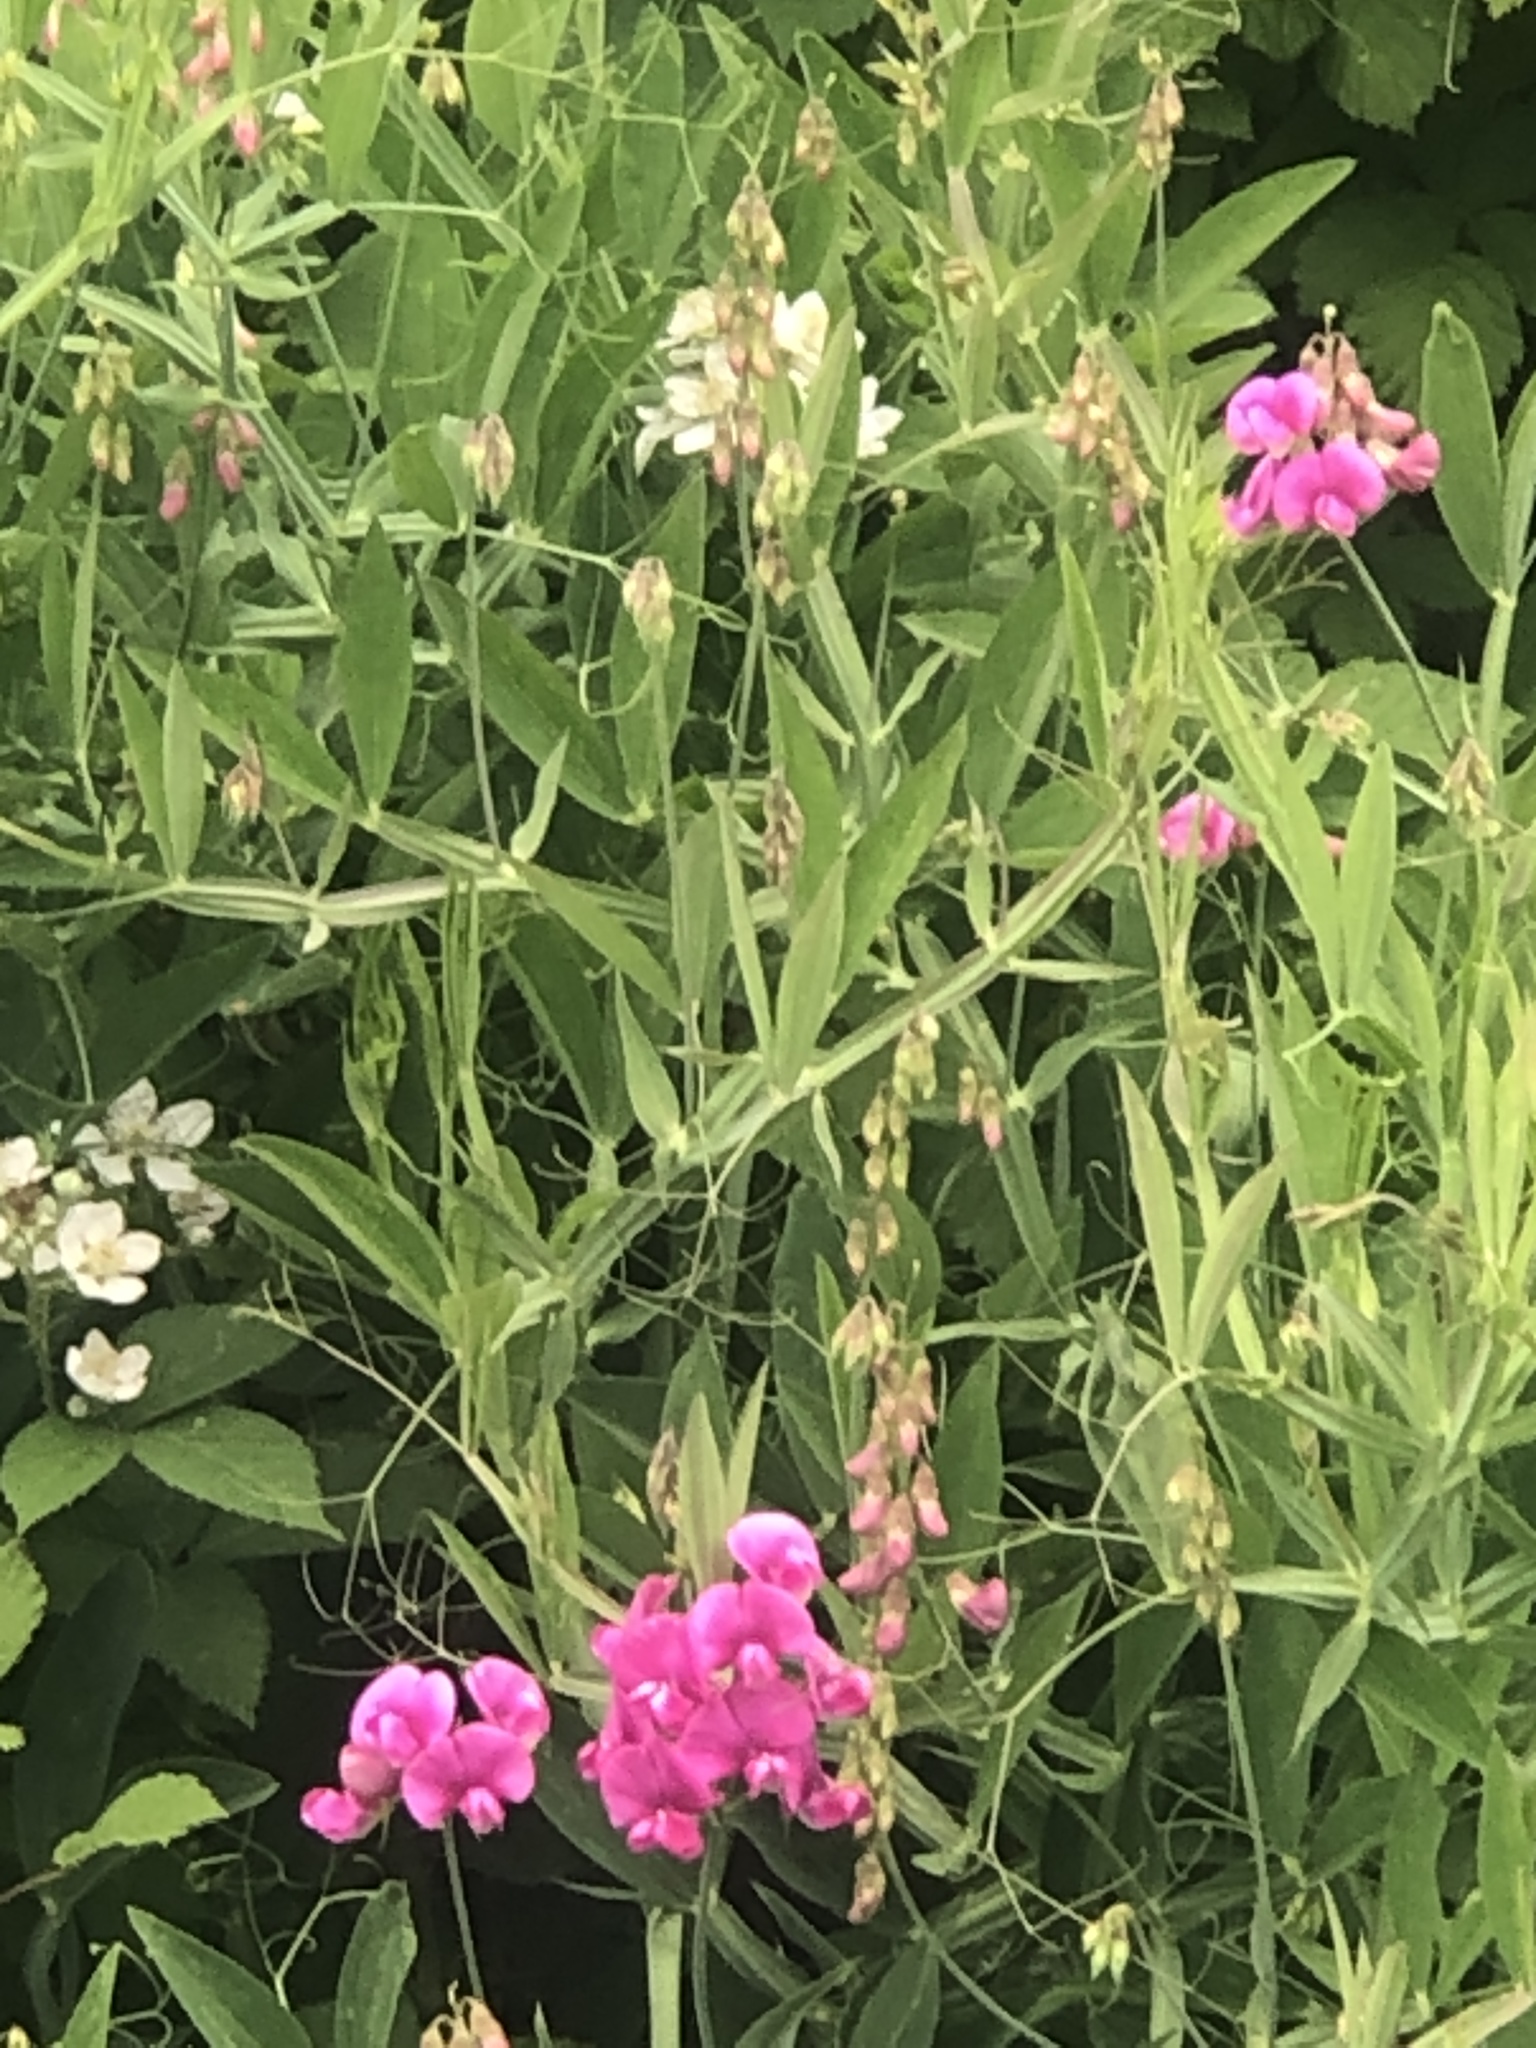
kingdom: Plantae
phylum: Tracheophyta
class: Magnoliopsida
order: Fabales
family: Fabaceae
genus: Lathyrus
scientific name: Lathyrus latifolius
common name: Perennial pea
